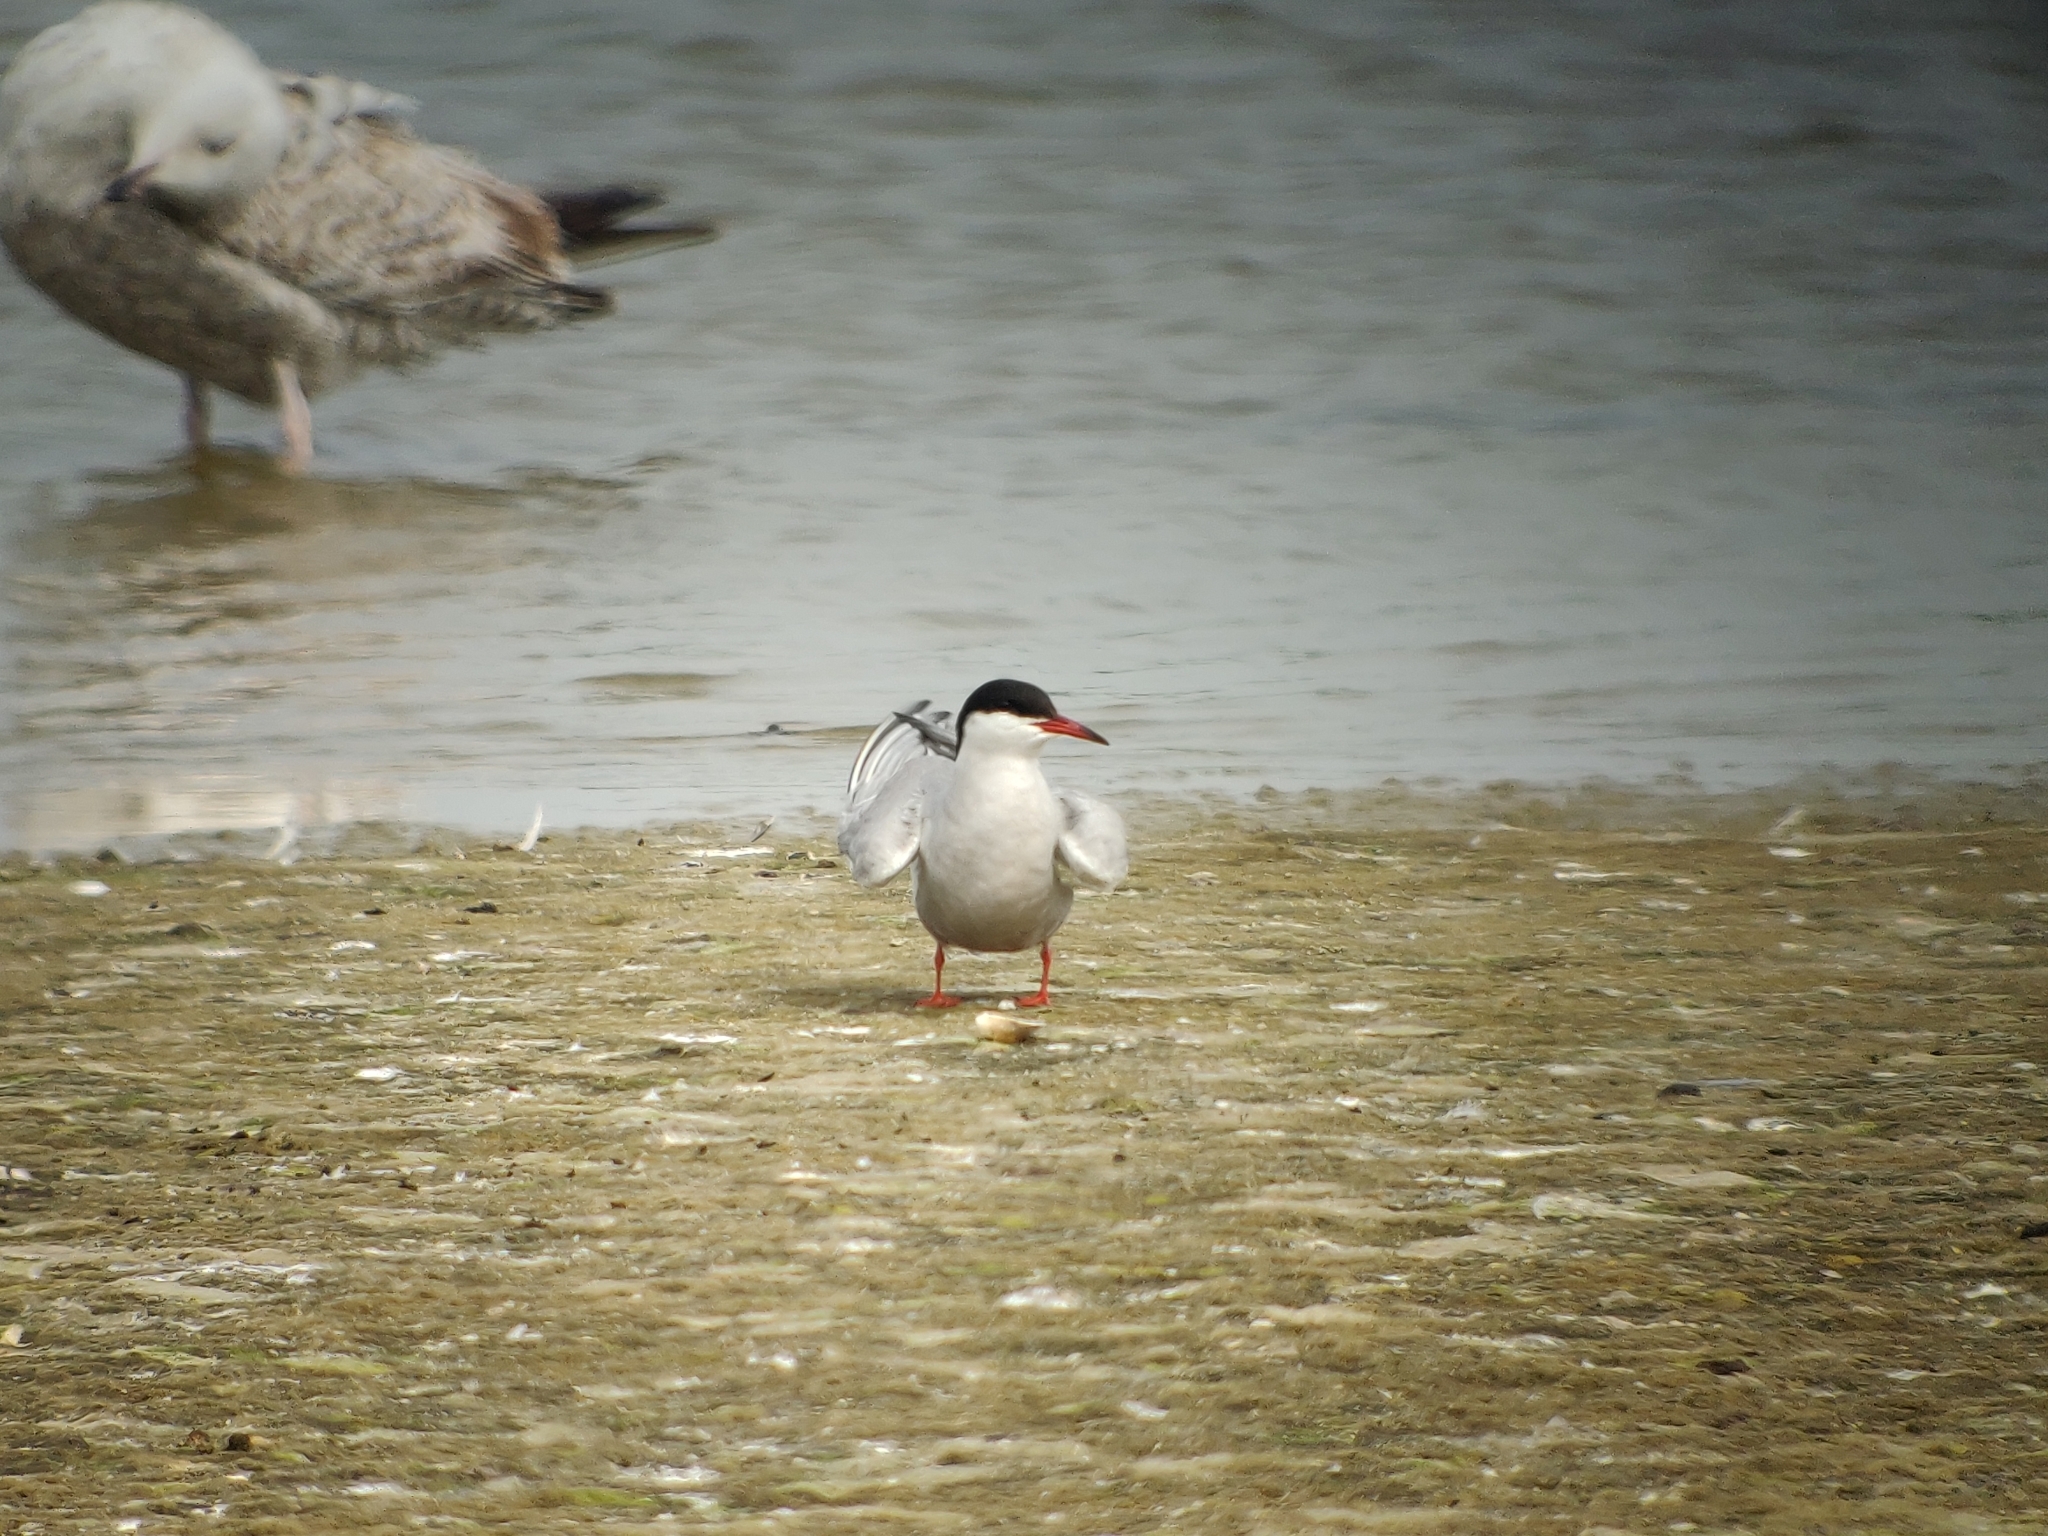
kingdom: Animalia
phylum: Chordata
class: Aves
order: Charadriiformes
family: Laridae
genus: Sterna
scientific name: Sterna hirundo
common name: Common tern
